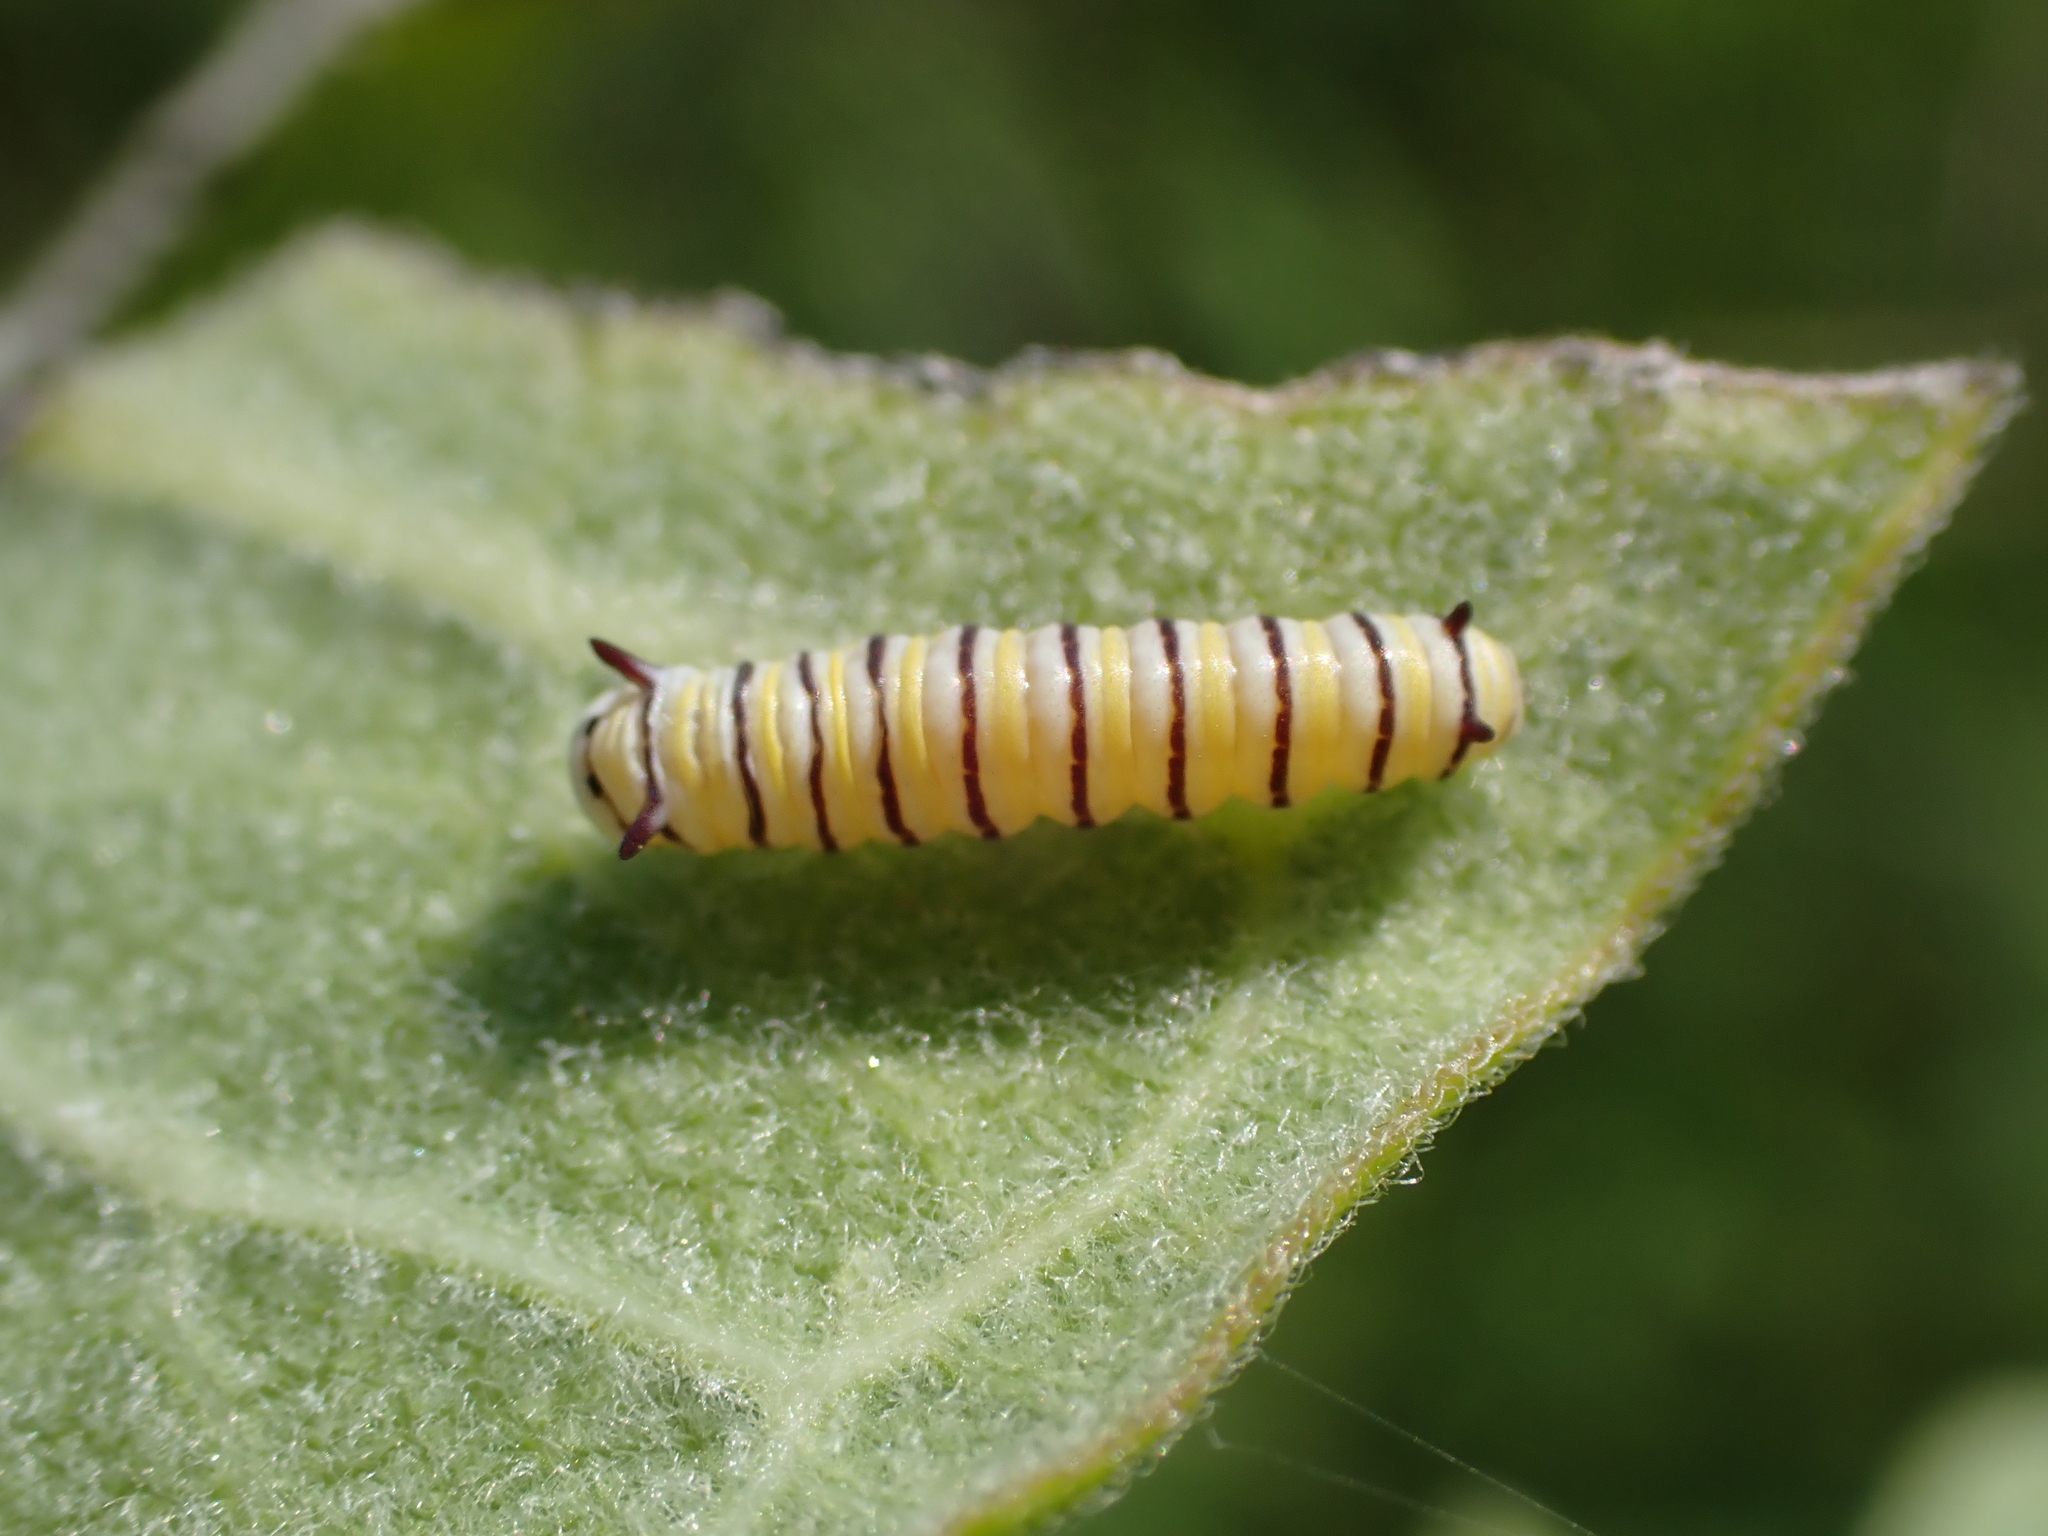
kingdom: Animalia
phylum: Arthropoda
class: Insecta
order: Lepidoptera
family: Nymphalidae
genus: Danaus
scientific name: Danaus plexippus
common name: Monarch
